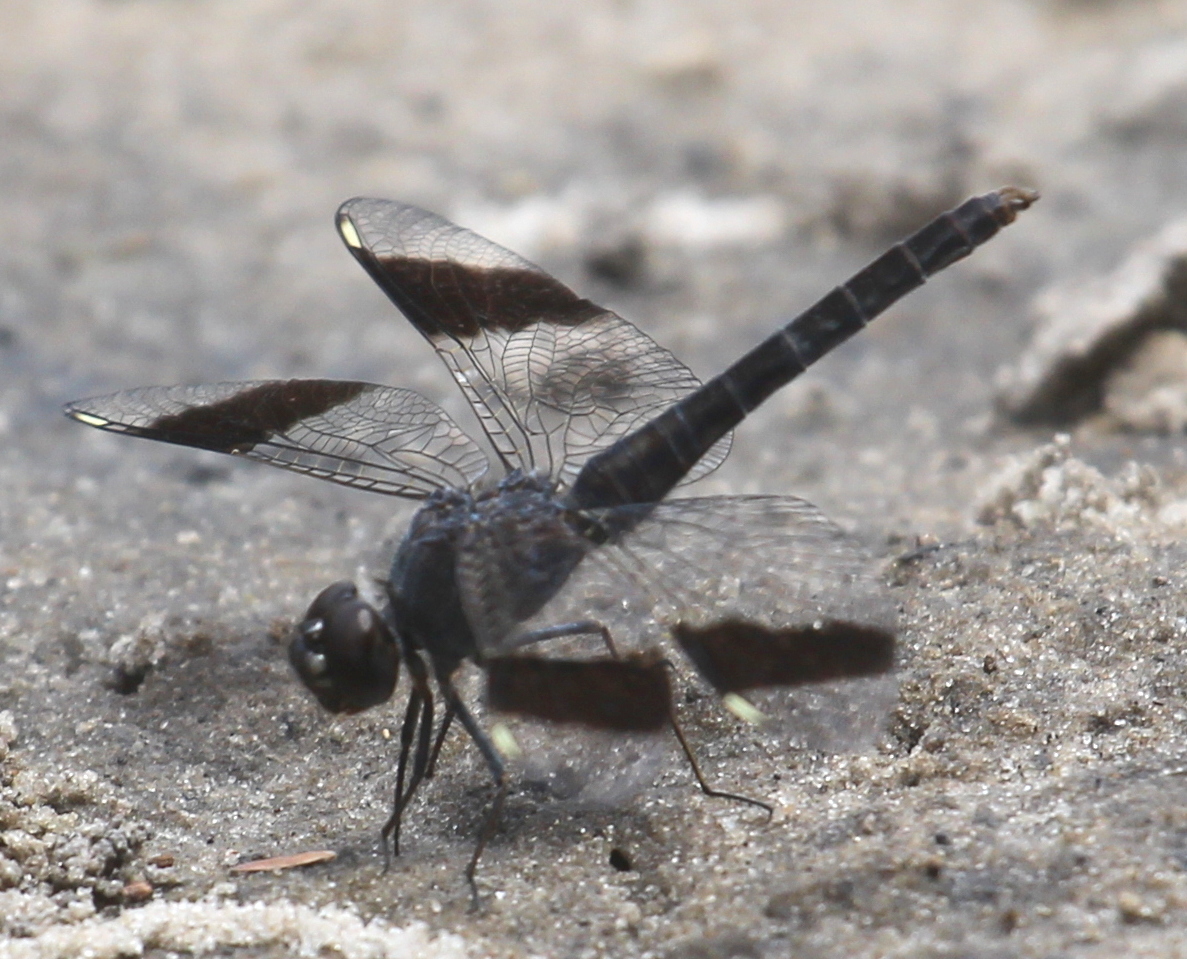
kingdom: Animalia
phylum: Arthropoda
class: Insecta
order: Odonata
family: Libellulidae
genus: Brachythemis
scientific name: Brachythemis leucosticta
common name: Banded groundling
